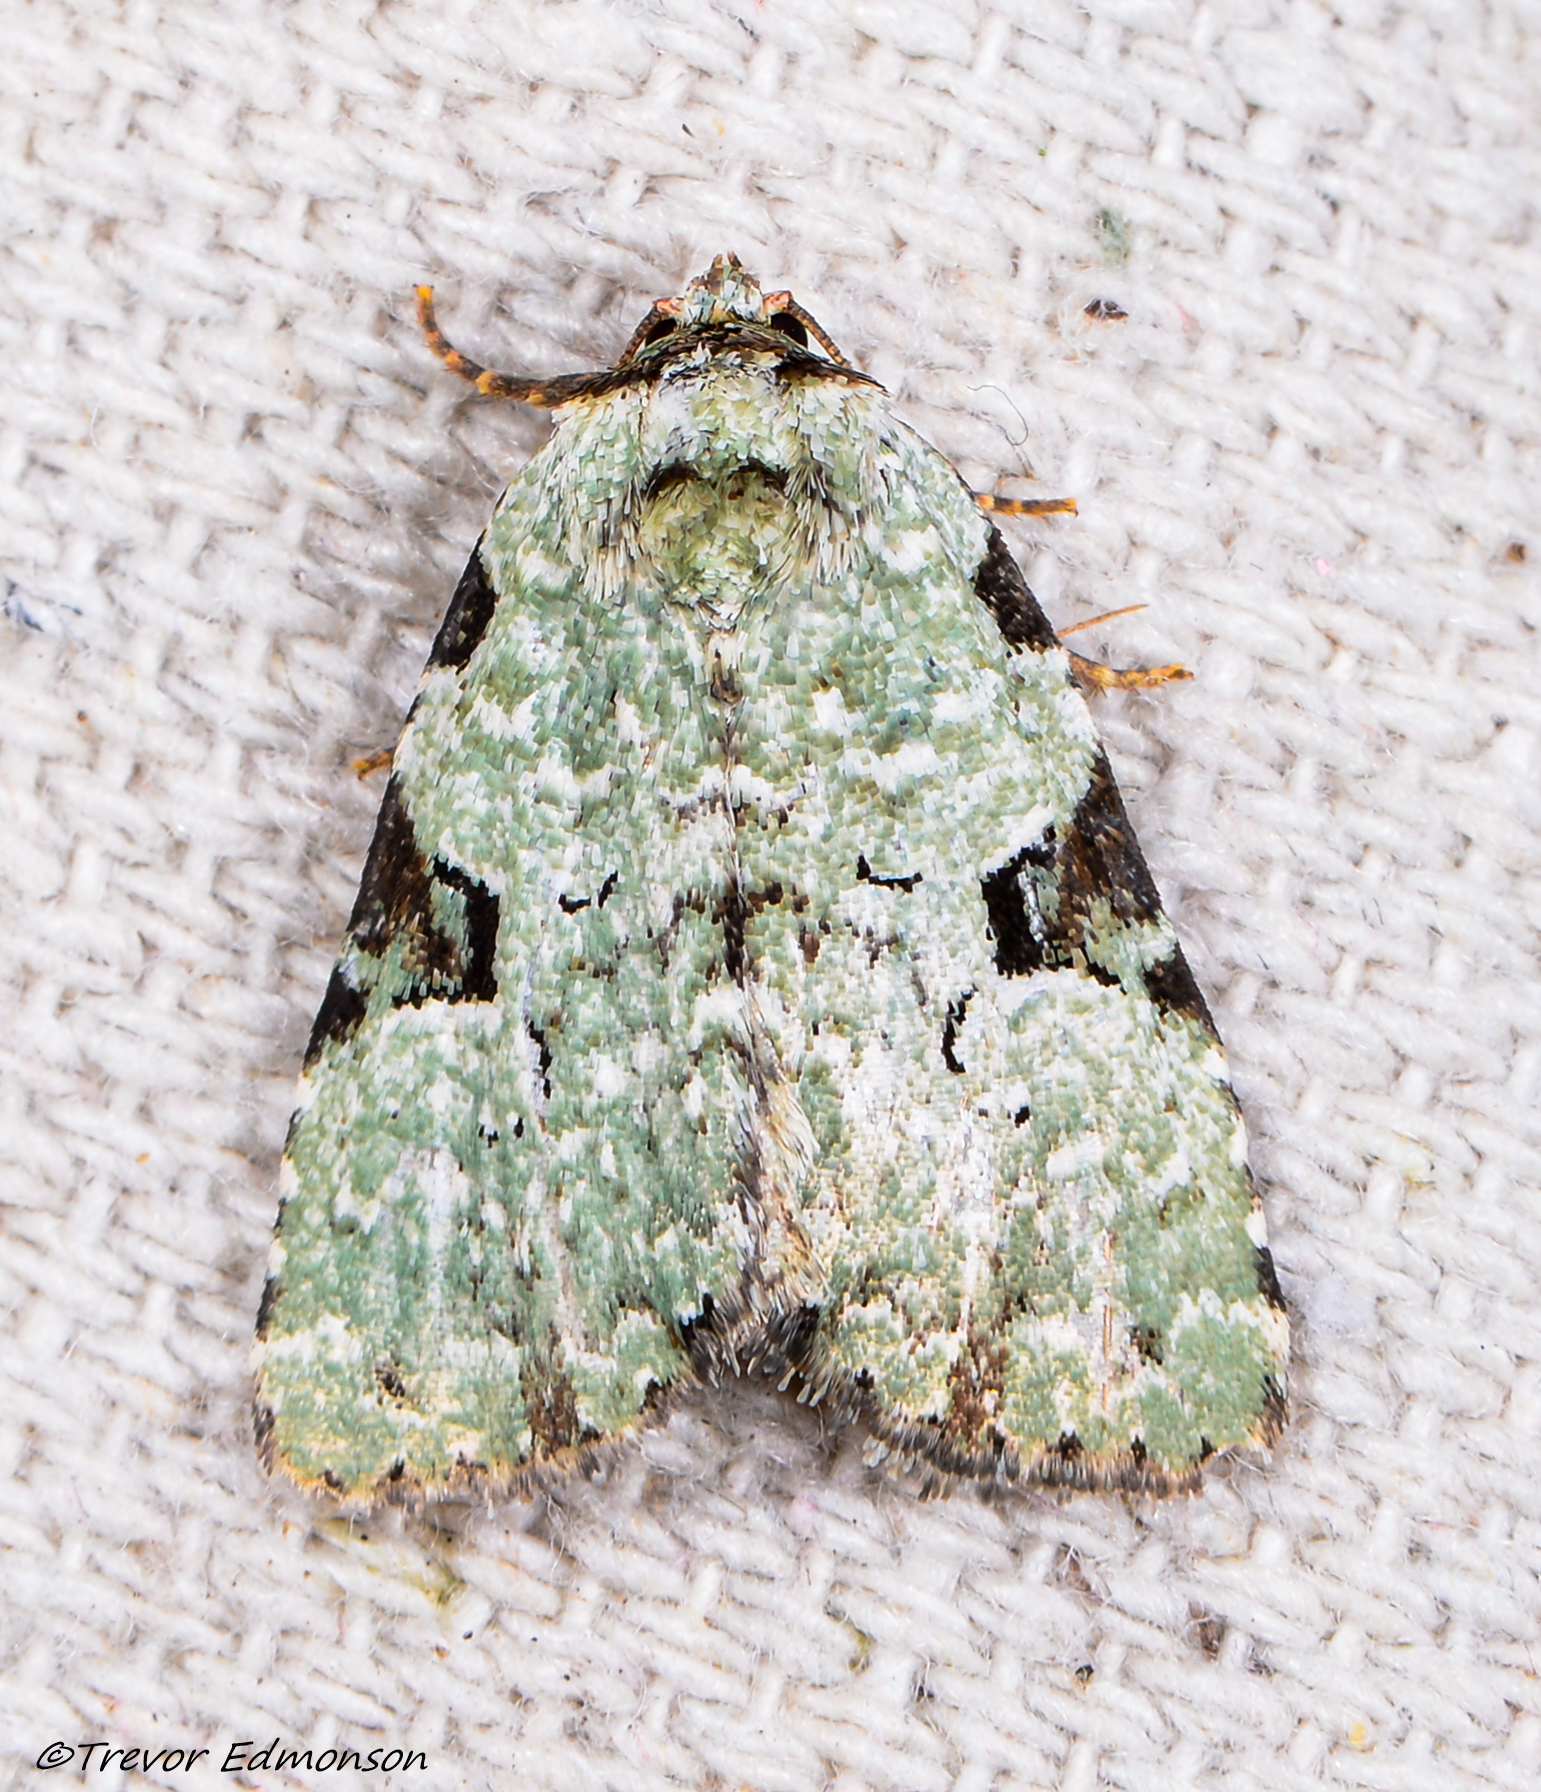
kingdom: Animalia
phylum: Arthropoda
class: Insecta
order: Lepidoptera
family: Noctuidae
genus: Leuconycta
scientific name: Leuconycta diphteroides
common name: Green leuconycta moth
